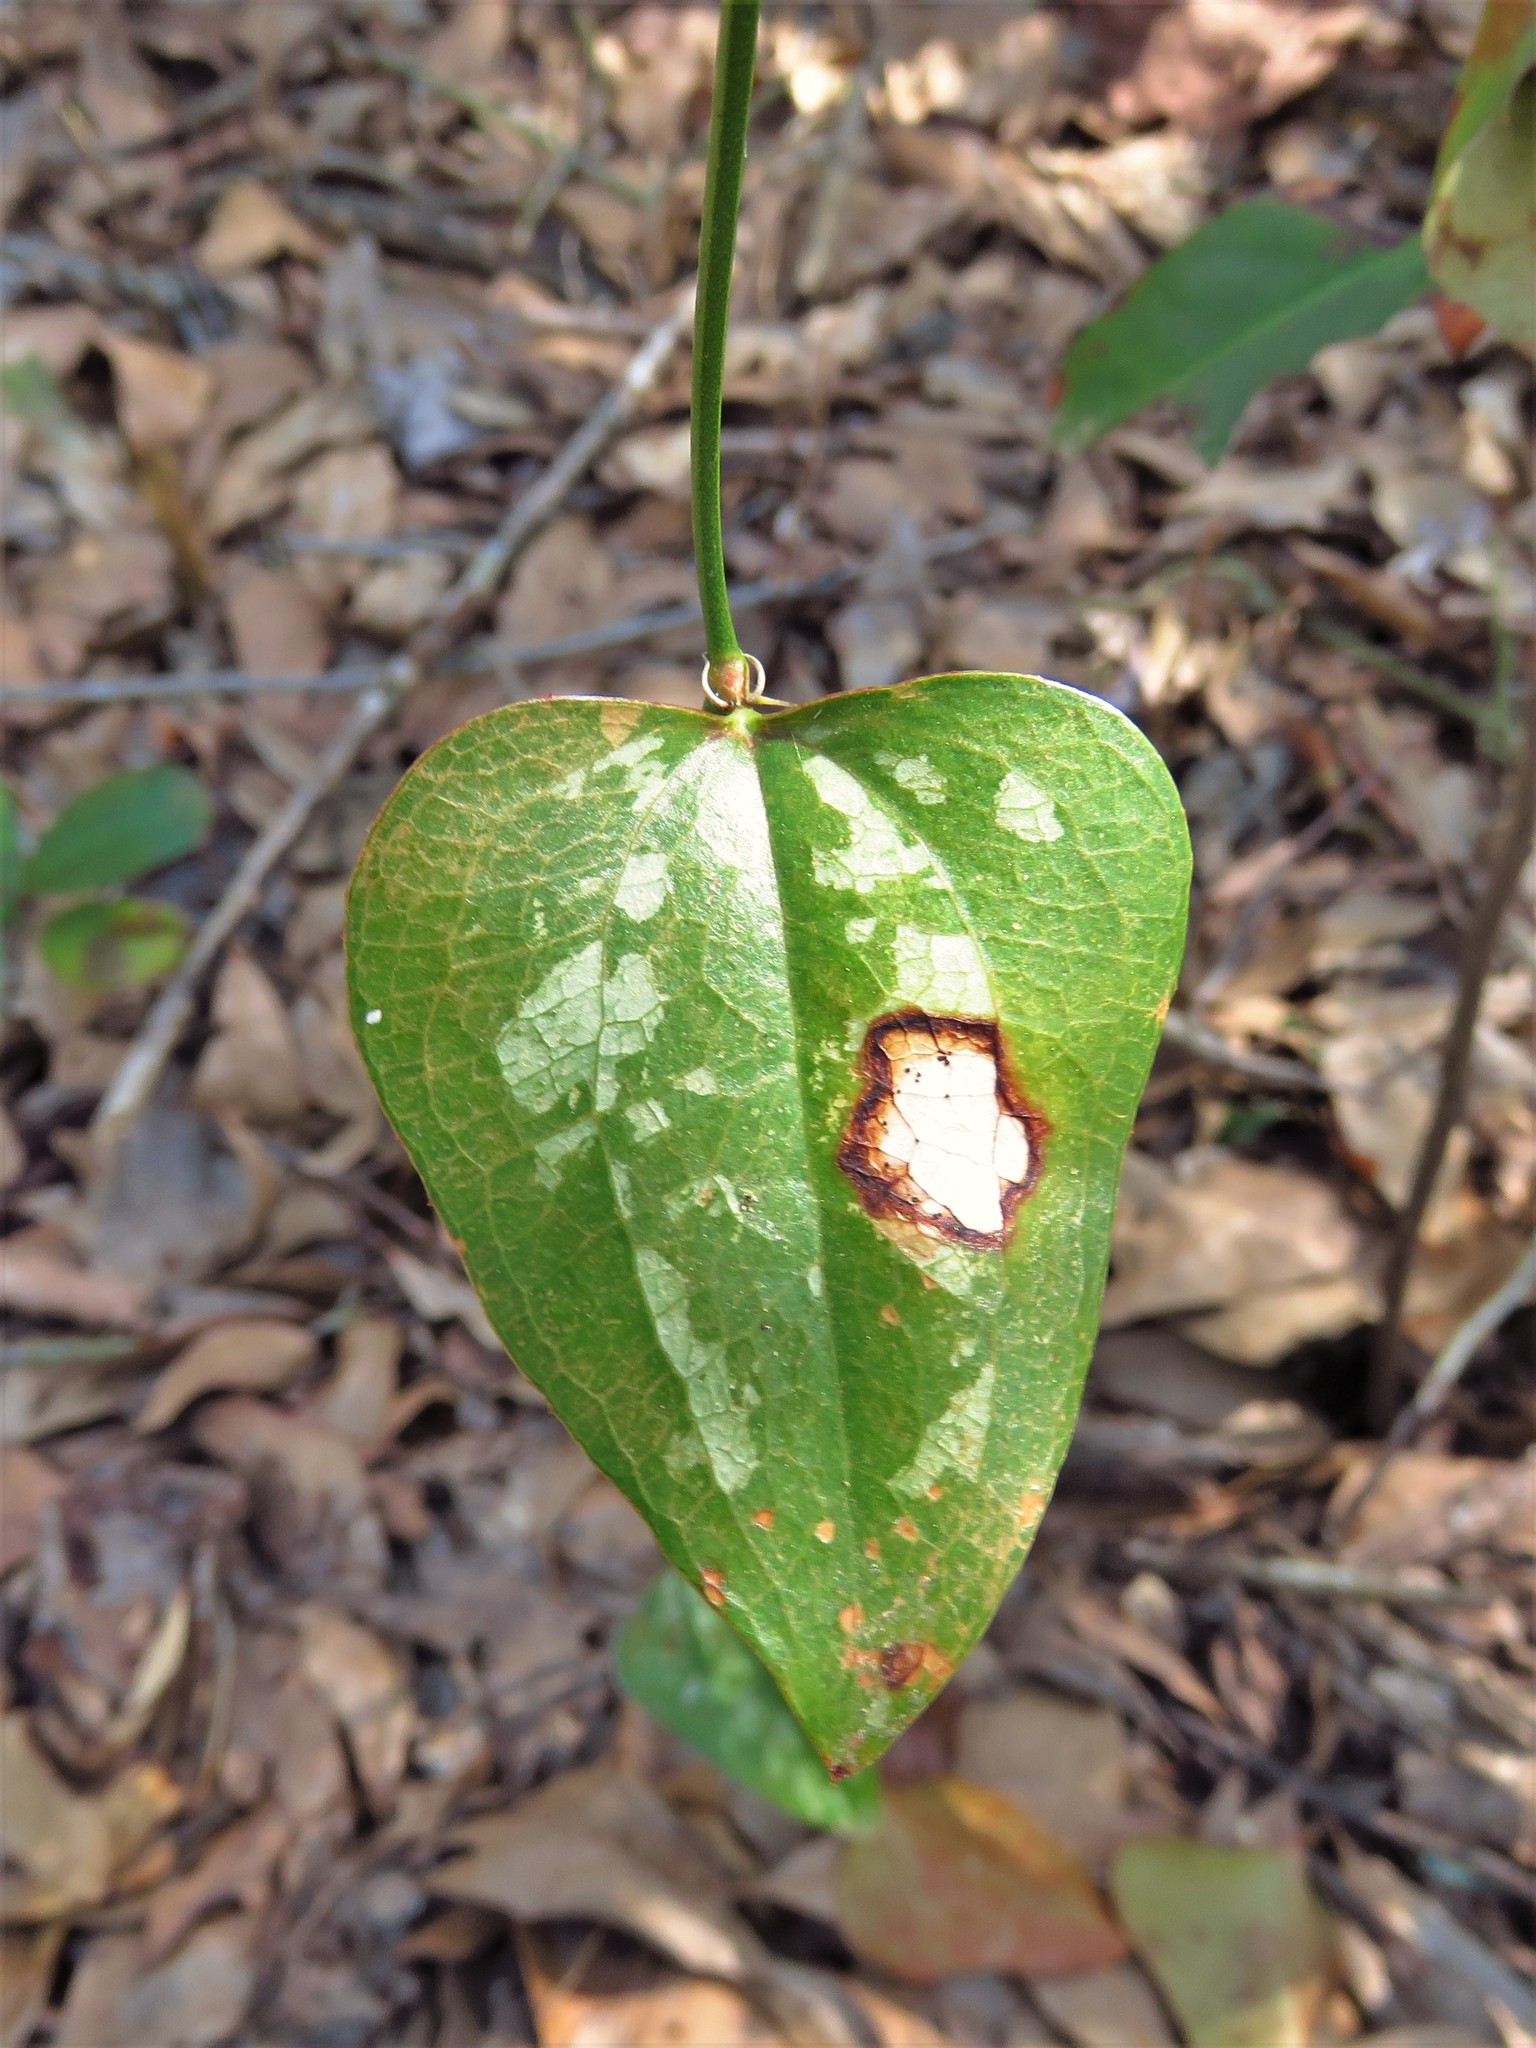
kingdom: Plantae
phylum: Tracheophyta
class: Liliopsida
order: Liliales
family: Smilacaceae
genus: Smilax
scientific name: Smilax bona-nox
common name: Catbrier
